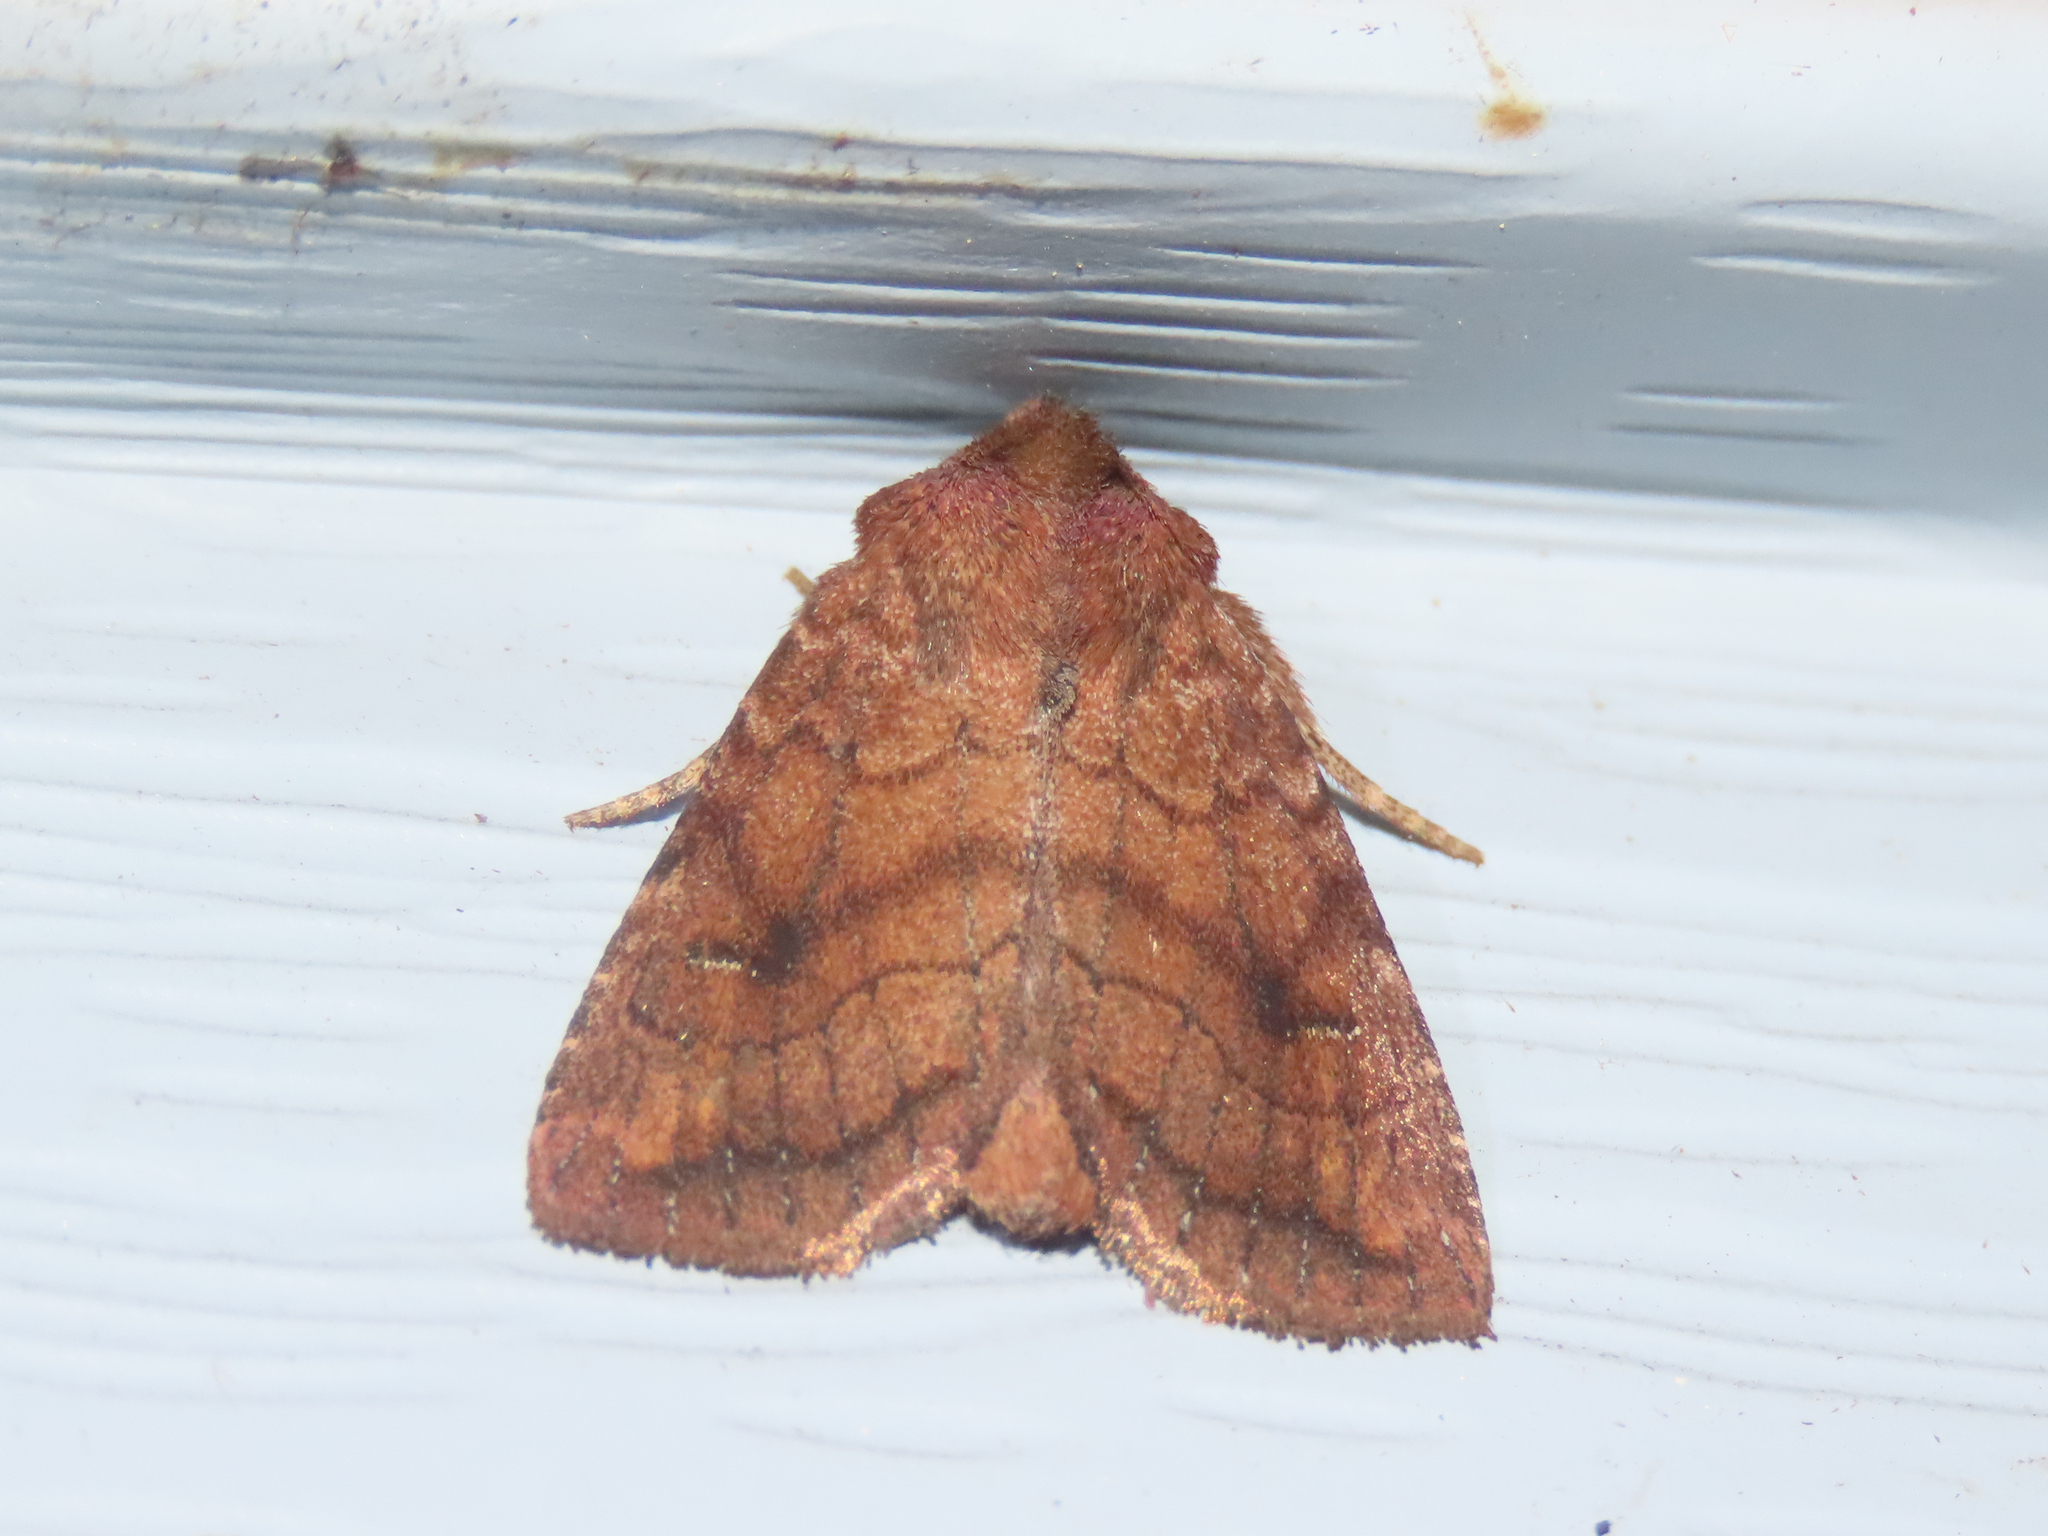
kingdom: Animalia
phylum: Arthropoda
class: Insecta
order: Lepidoptera
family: Noctuidae
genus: Tricholita
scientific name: Tricholita signata
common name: Signate quaker
